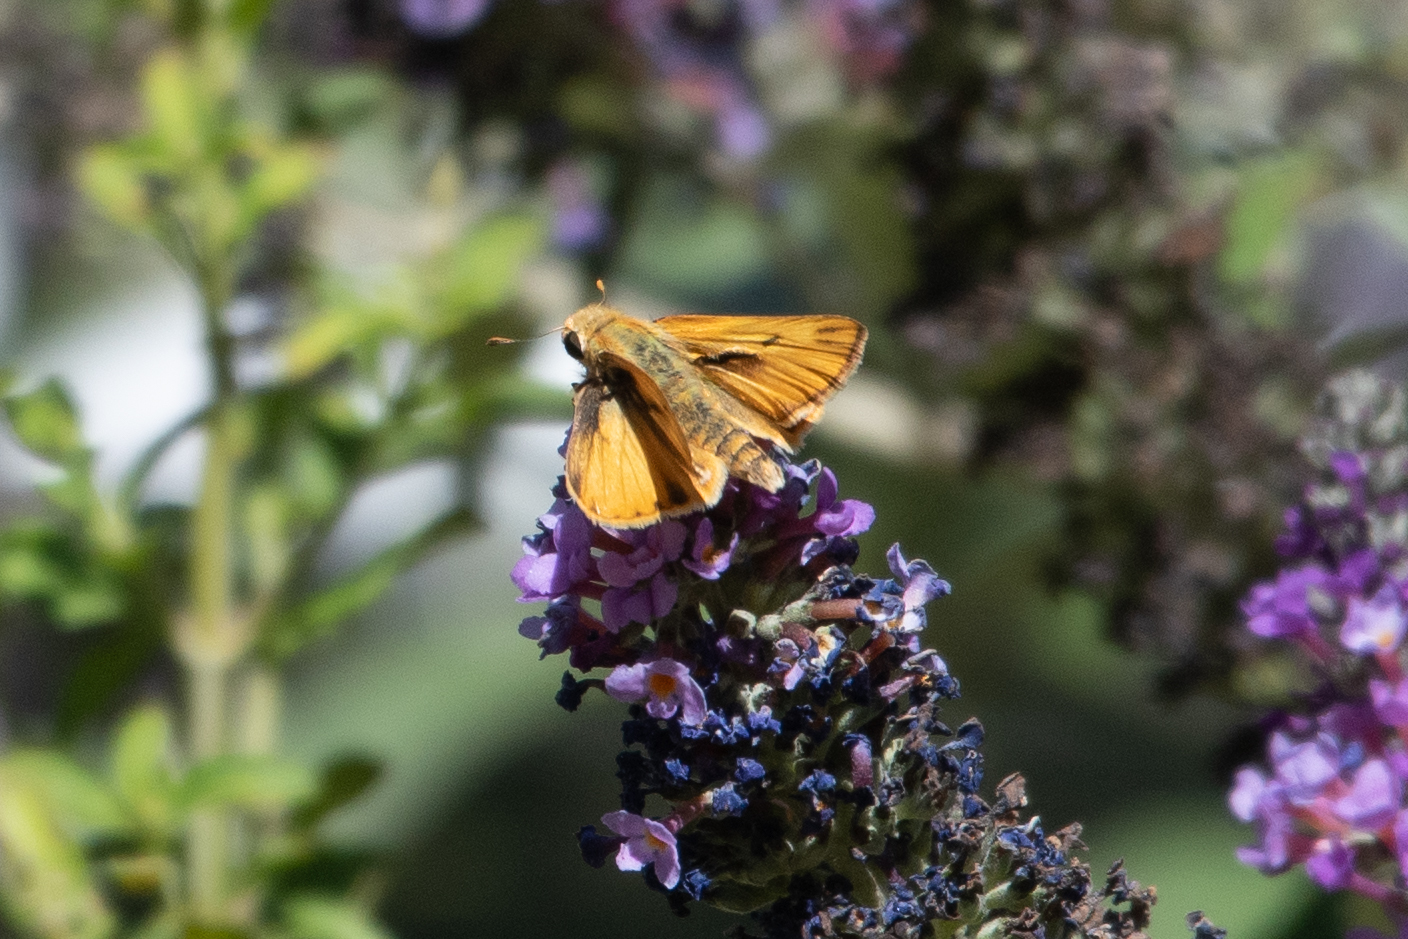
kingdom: Animalia
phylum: Arthropoda
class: Insecta
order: Lepidoptera
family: Hesperiidae
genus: Hylephila
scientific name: Hylephila phyleus
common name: Fiery skipper
